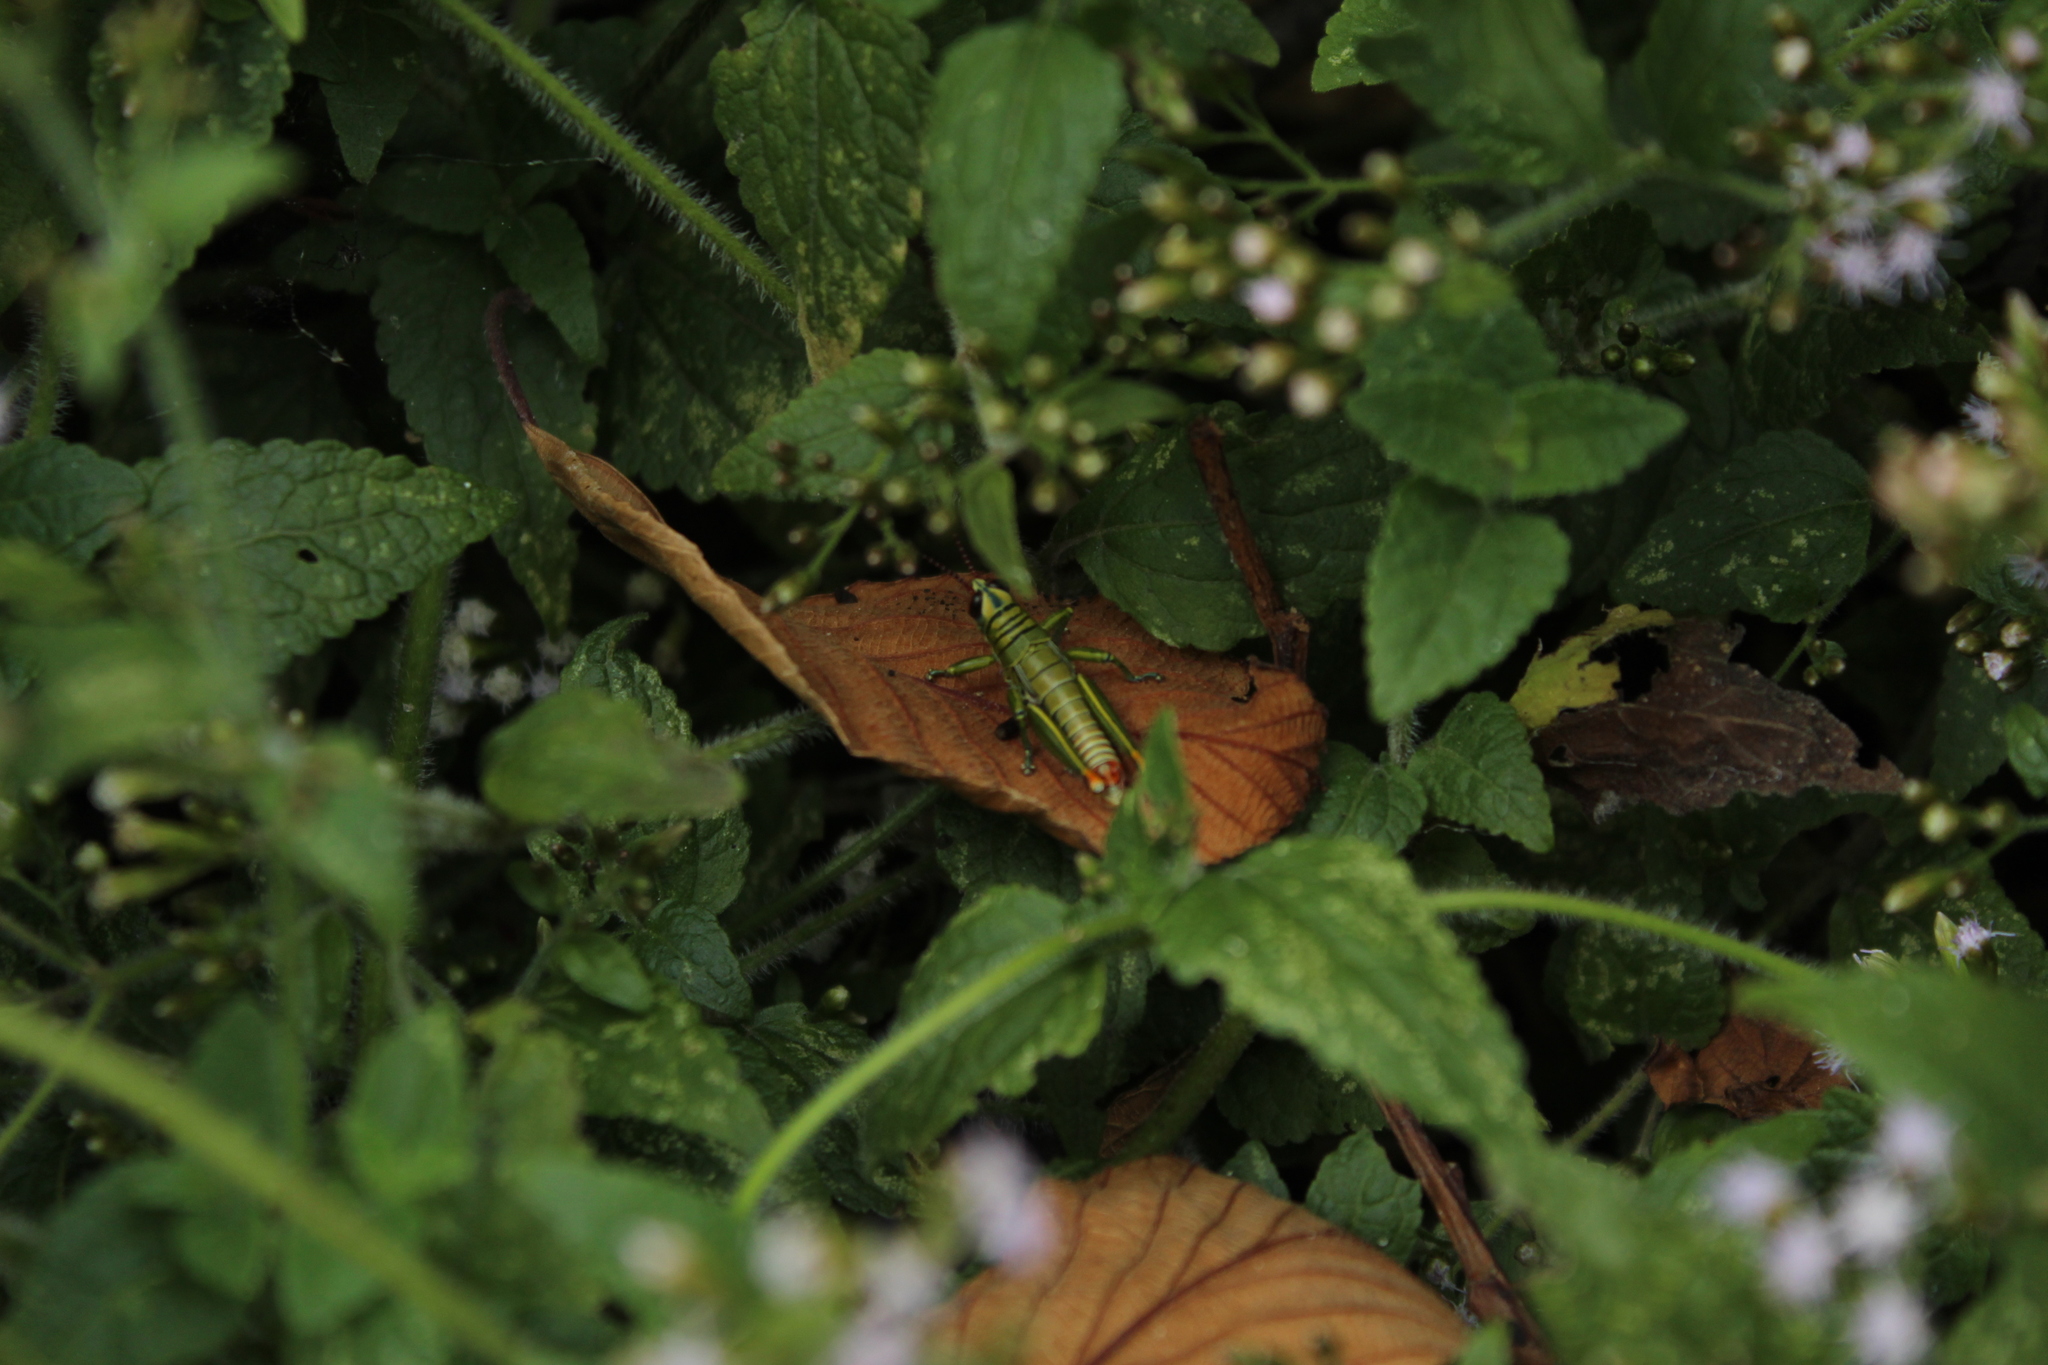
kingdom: Animalia
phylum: Arthropoda
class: Insecta
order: Orthoptera
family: Acrididae
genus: Agesander
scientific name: Agesander ruficornis
